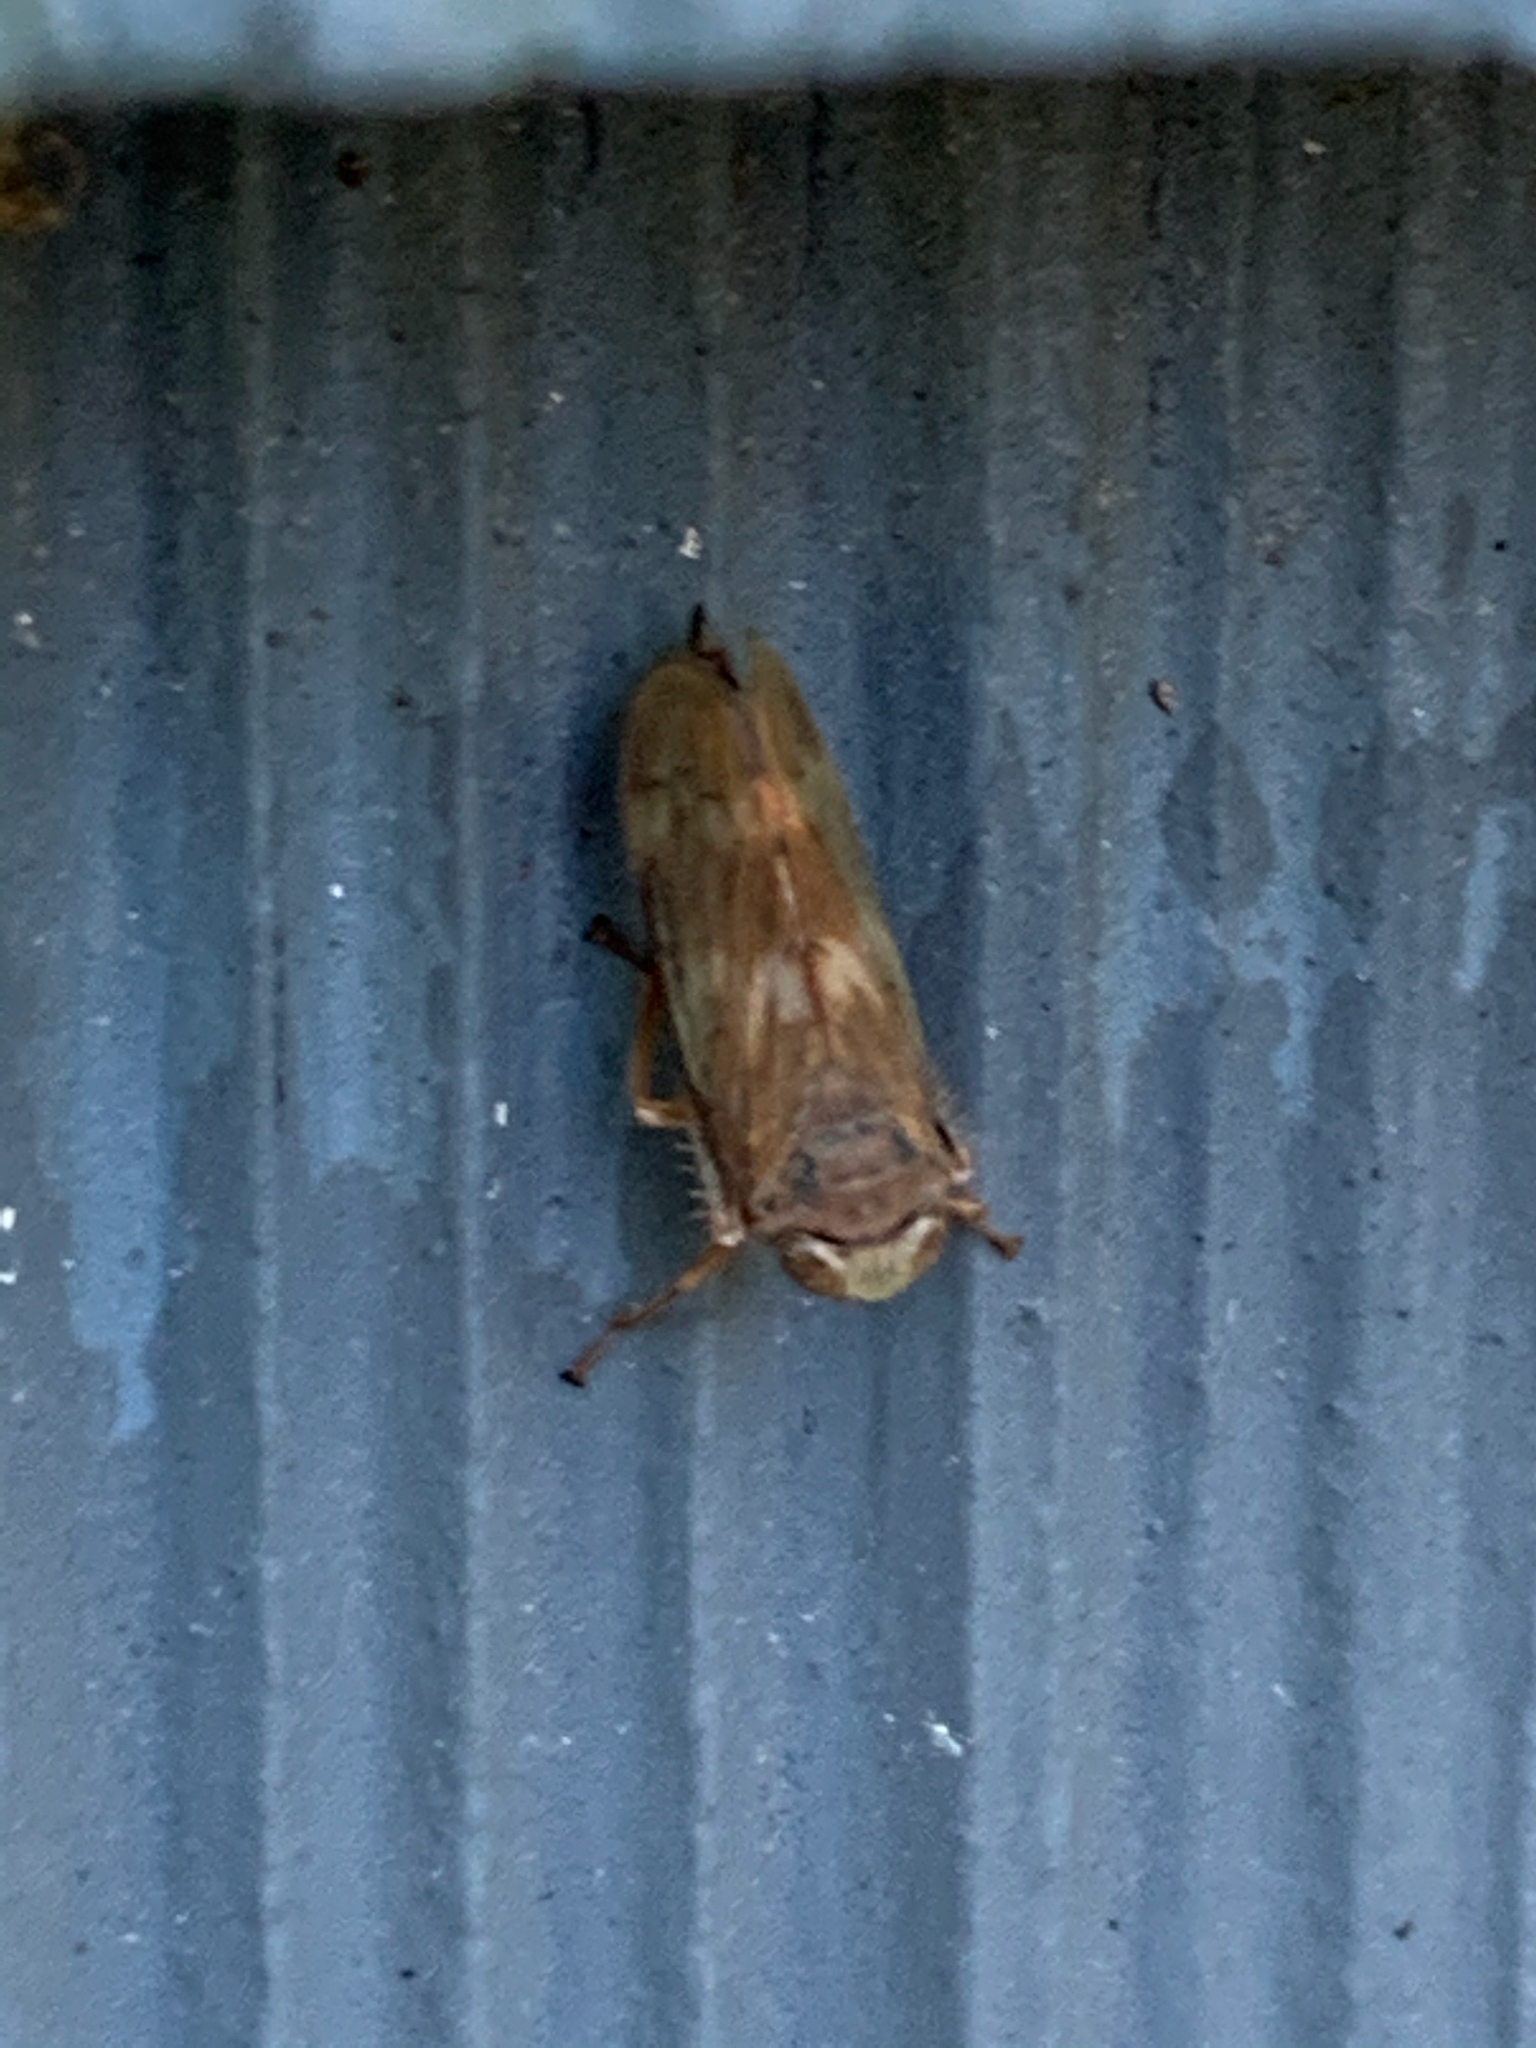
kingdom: Animalia
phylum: Arthropoda
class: Insecta
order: Hemiptera
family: Cicadellidae
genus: Jikradia
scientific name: Jikradia olitoria
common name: Coppery leafhopper
